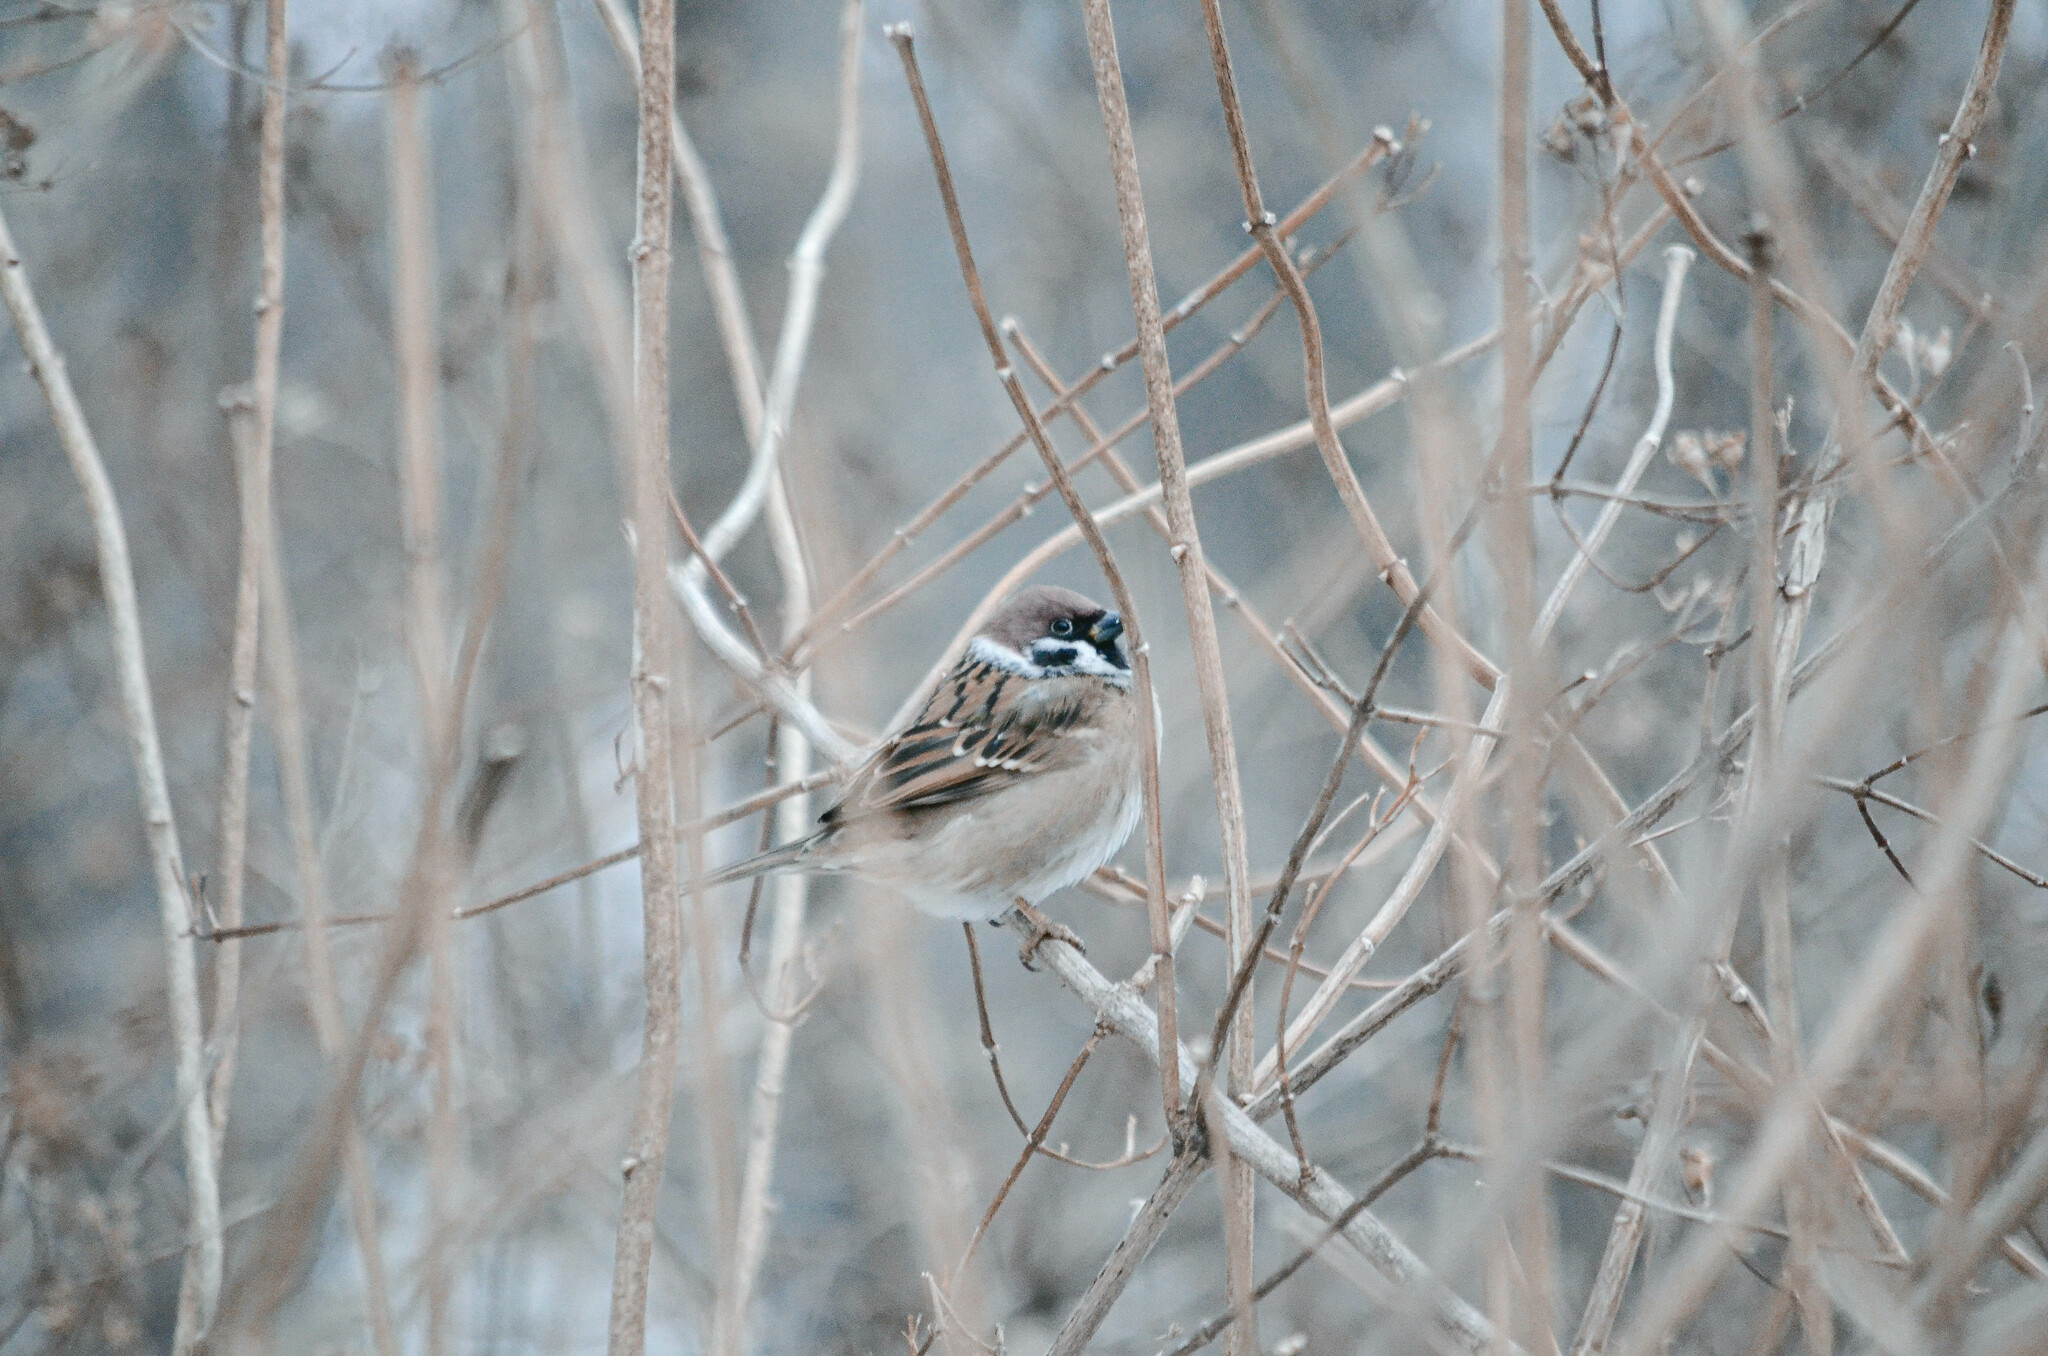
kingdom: Animalia
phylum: Chordata
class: Aves
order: Passeriformes
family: Passeridae
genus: Passer
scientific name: Passer montanus
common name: Eurasian tree sparrow
